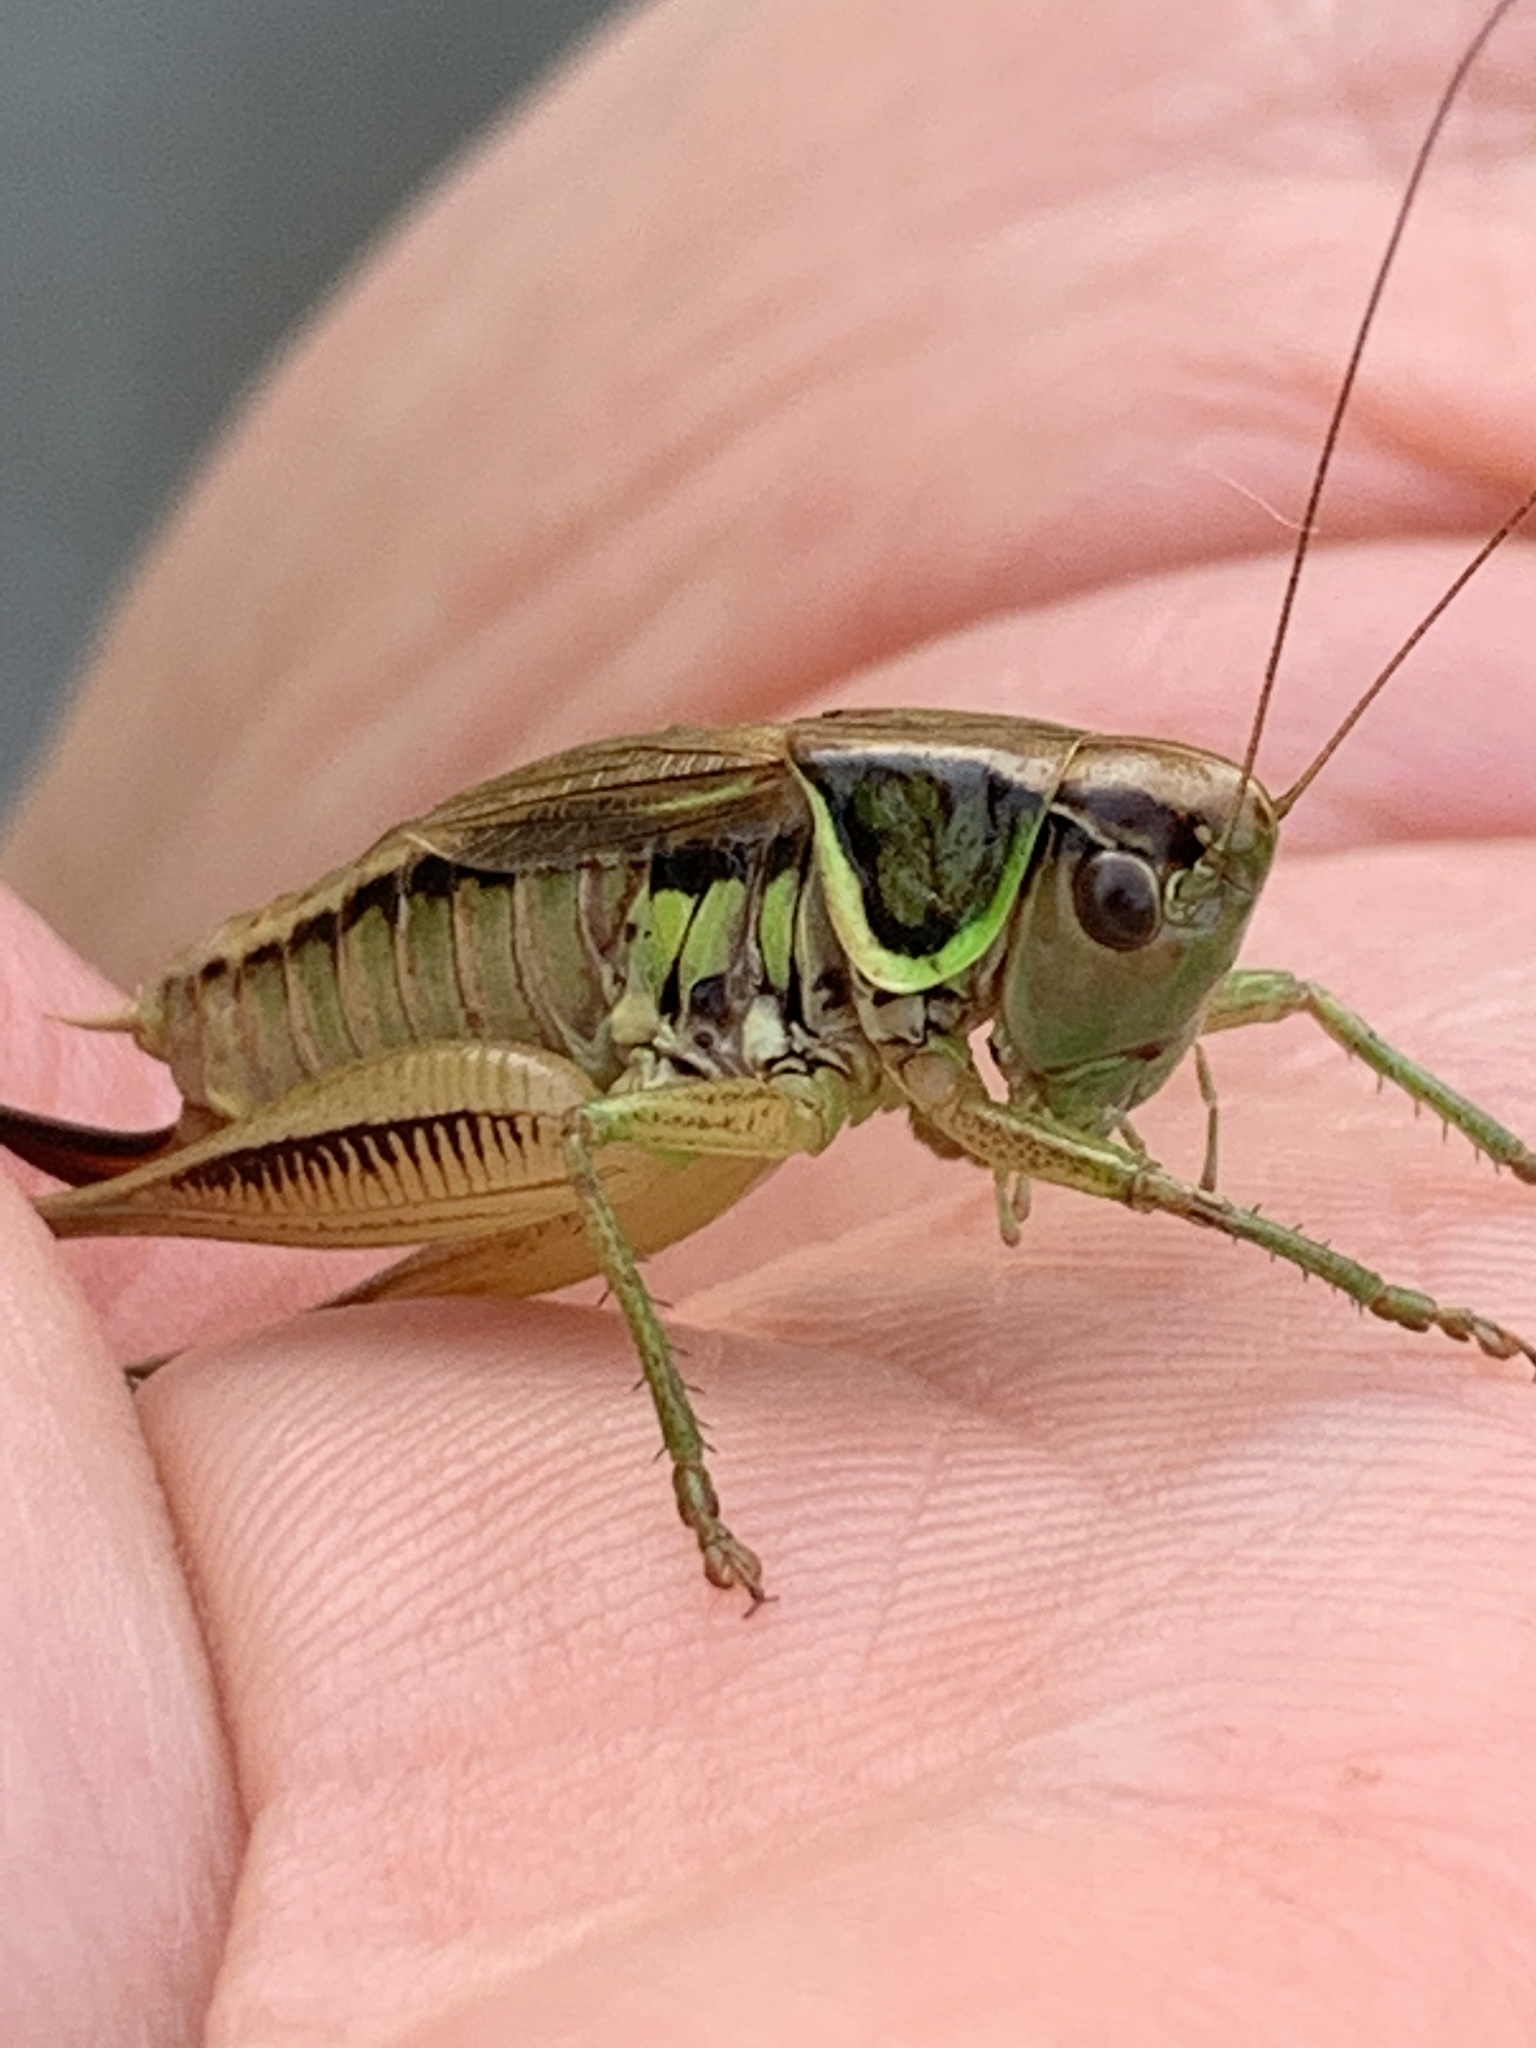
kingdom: Animalia
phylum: Arthropoda
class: Insecta
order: Orthoptera
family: Tettigoniidae
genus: Roeseliana
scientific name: Roeseliana roeselii
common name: Roesel's bush cricket
